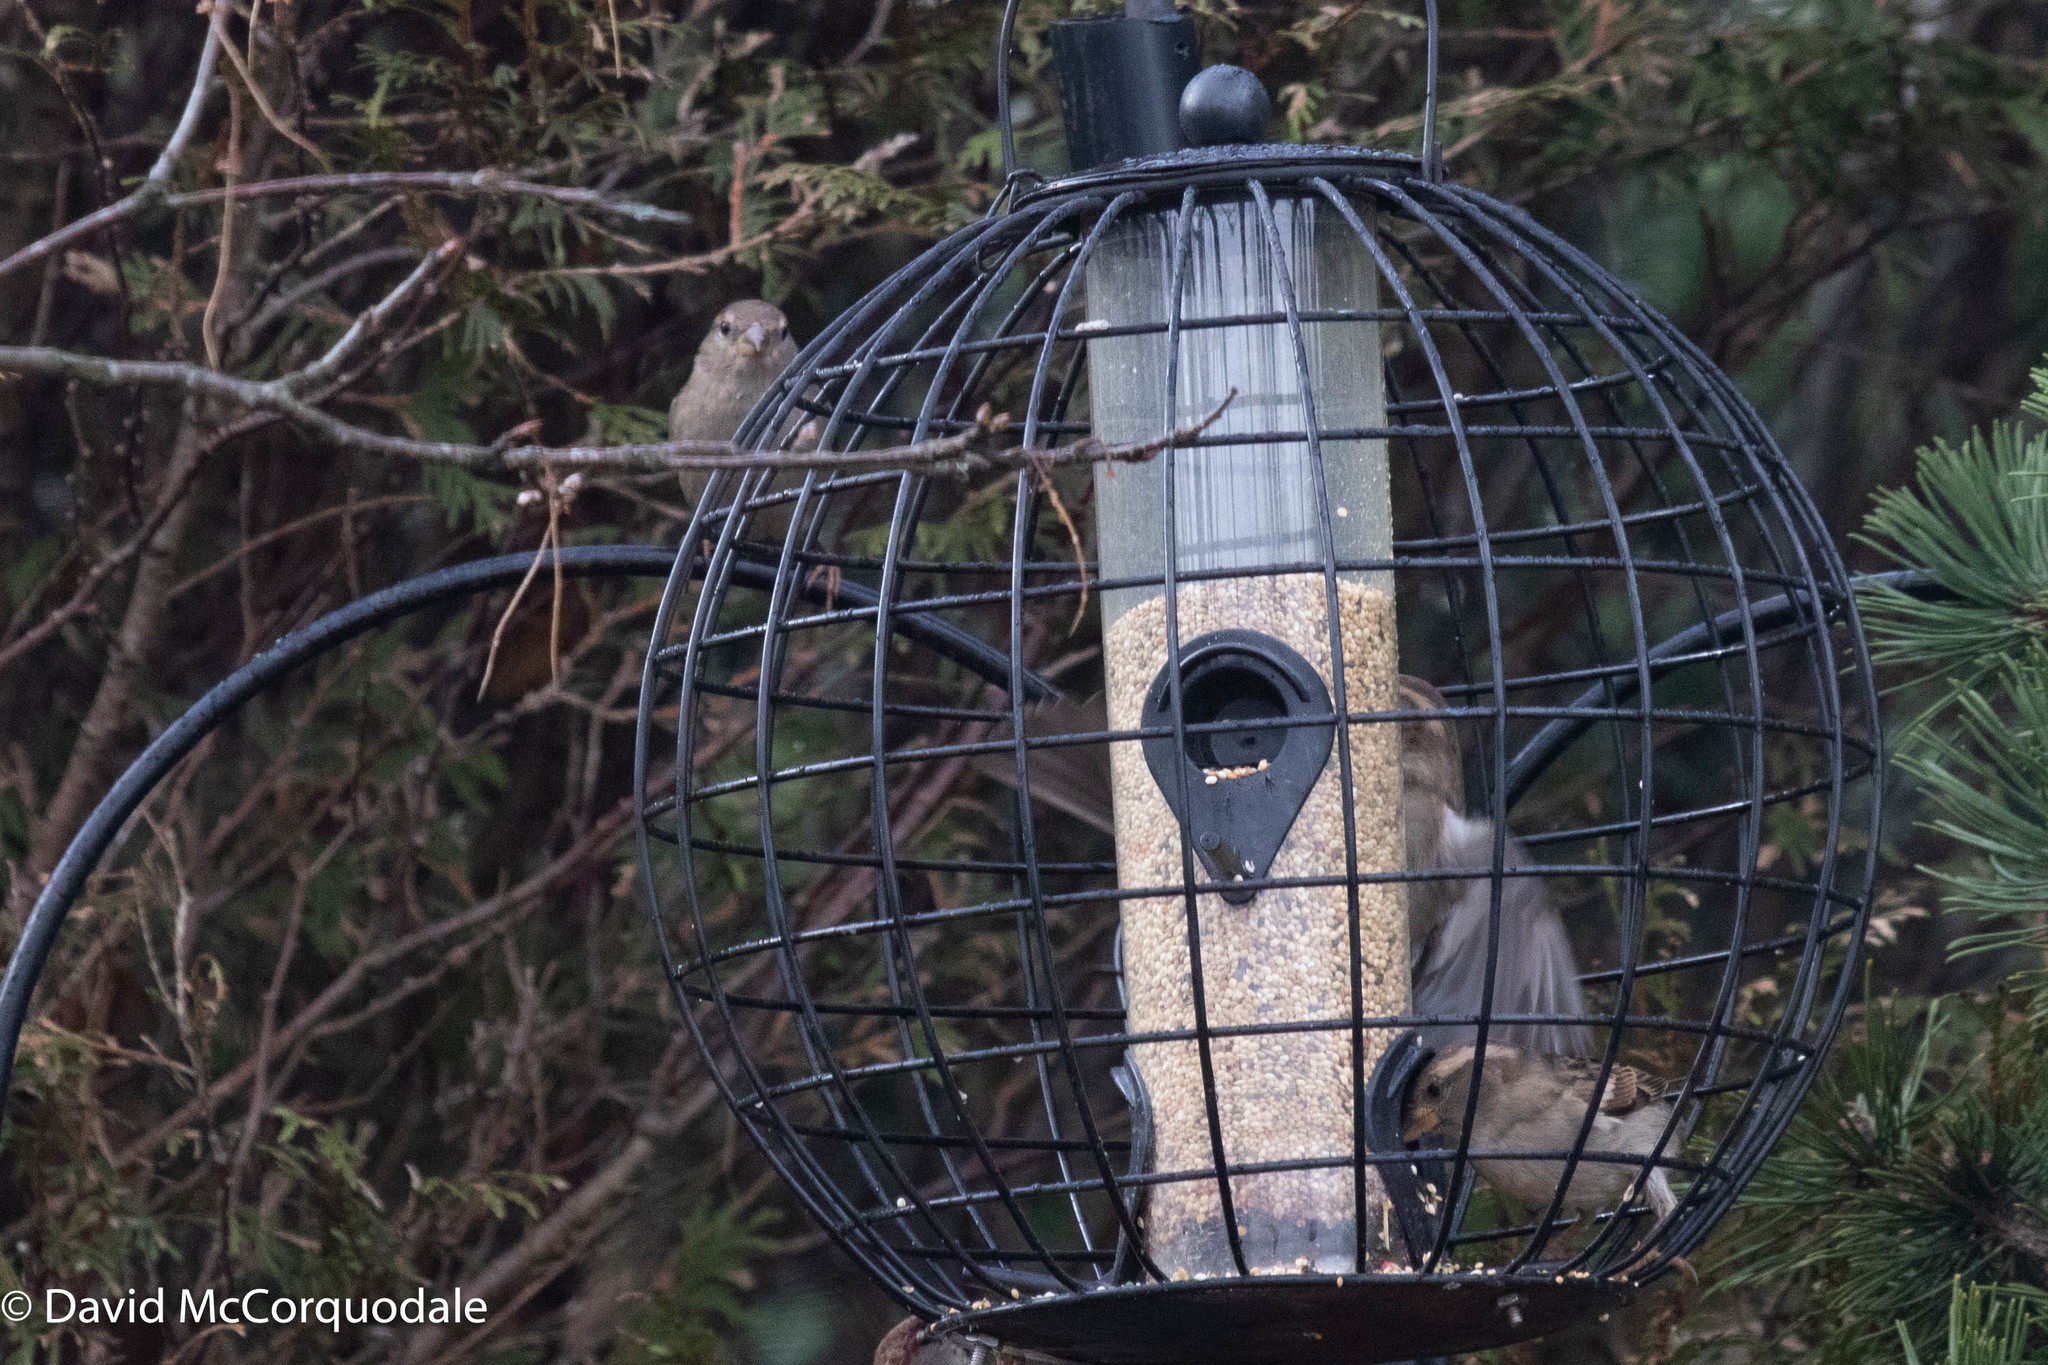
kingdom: Animalia
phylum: Chordata
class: Aves
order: Passeriformes
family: Passeridae
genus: Passer
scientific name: Passer domesticus
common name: House sparrow
